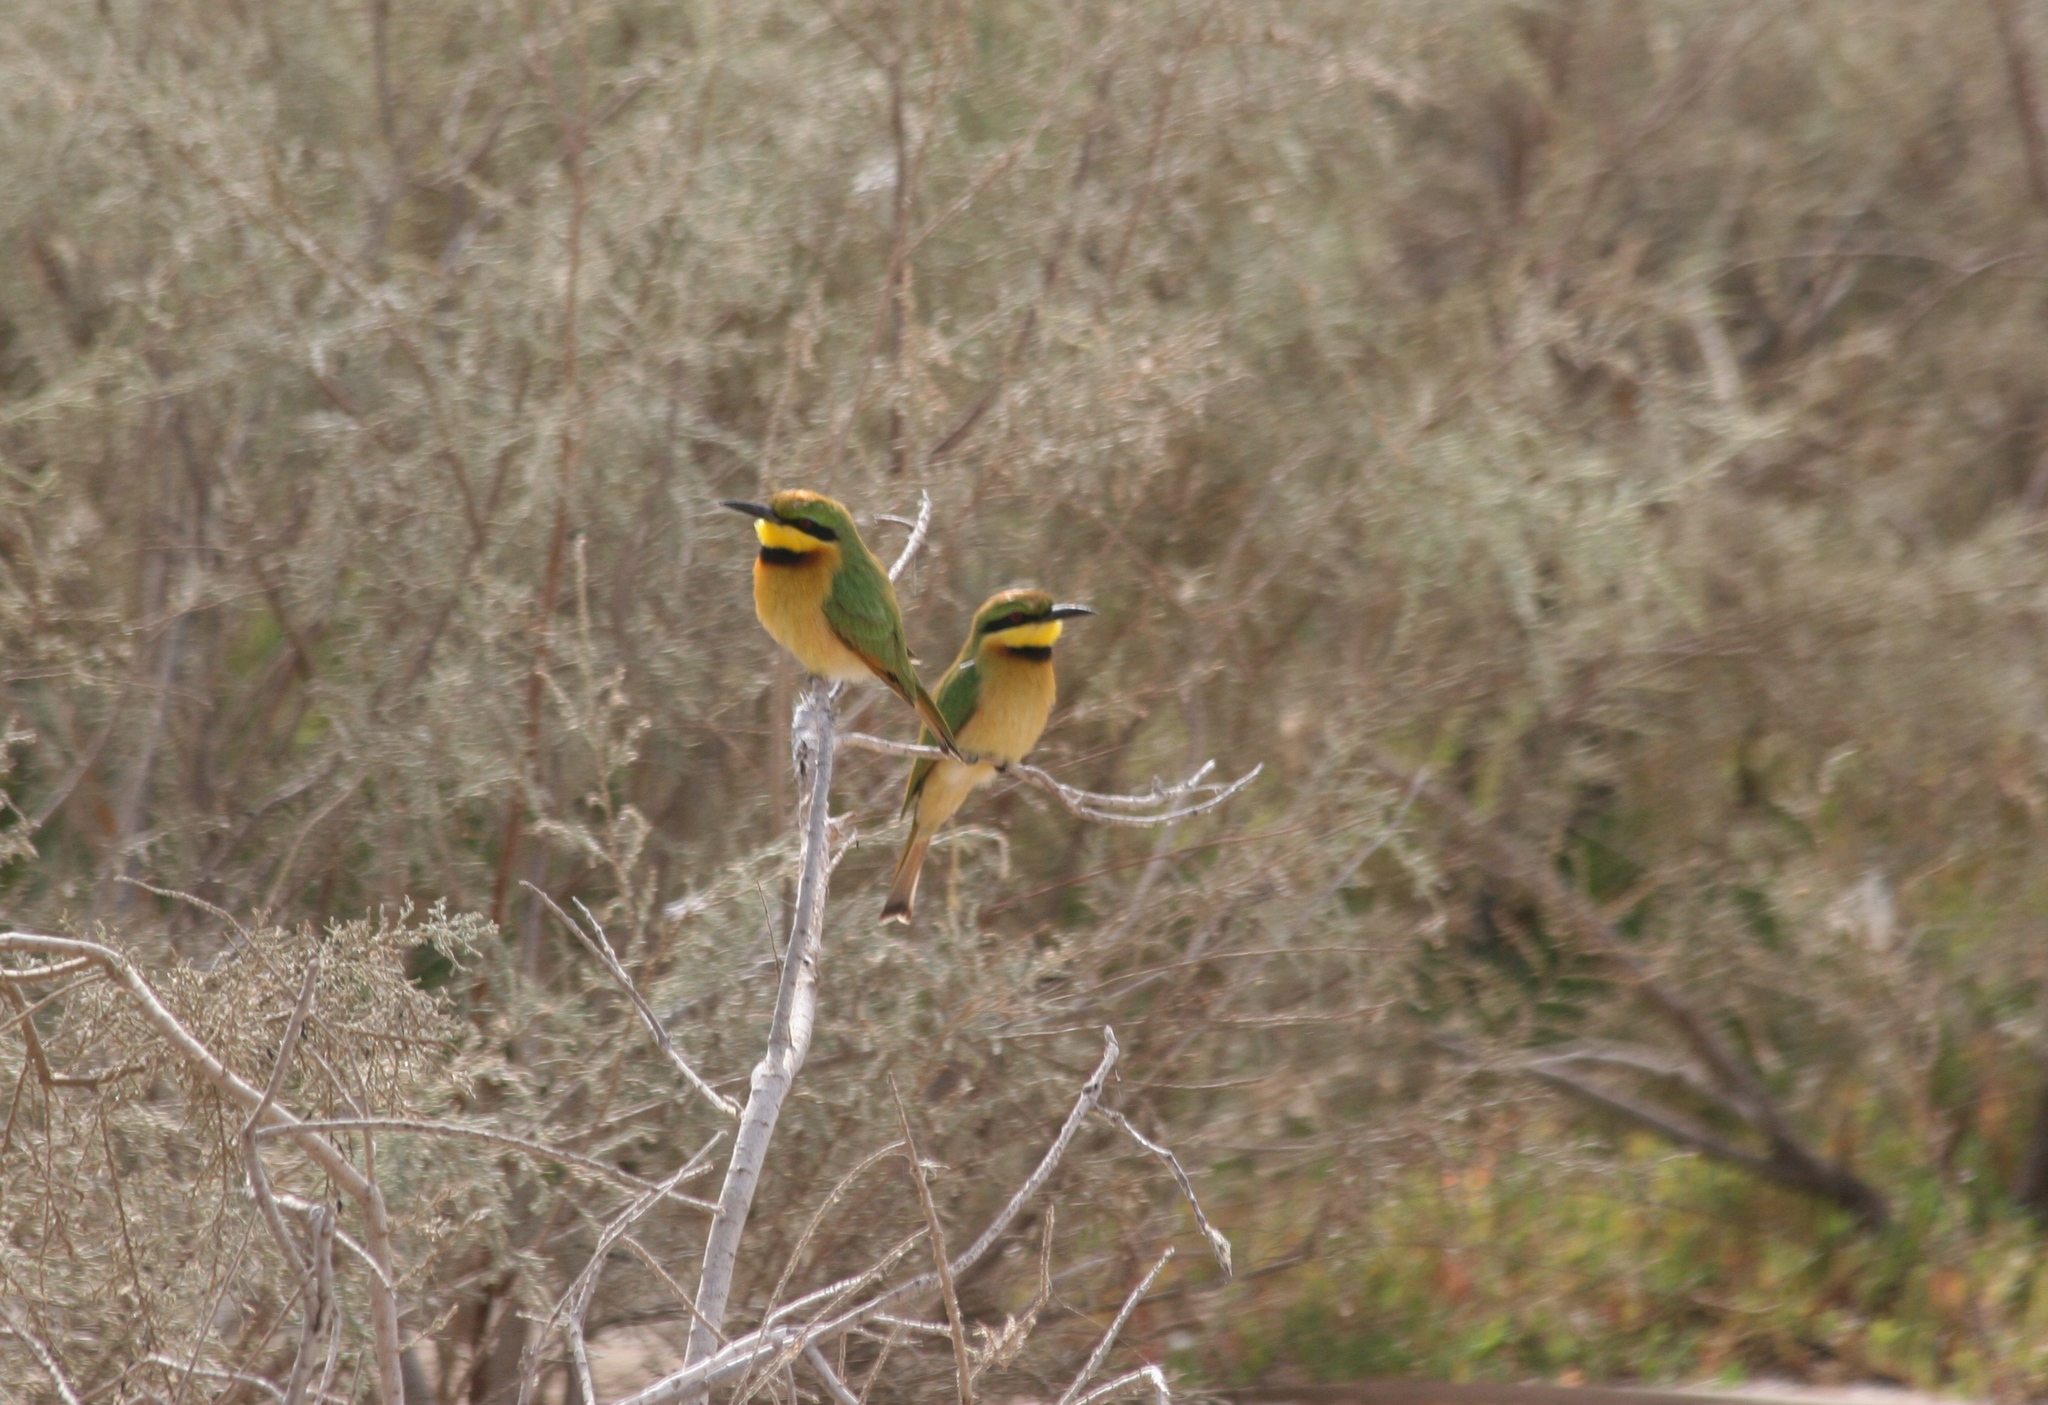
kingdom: Animalia
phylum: Chordata
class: Aves
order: Coraciiformes
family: Meropidae
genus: Merops
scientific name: Merops pusillus
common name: Little bee-eater
